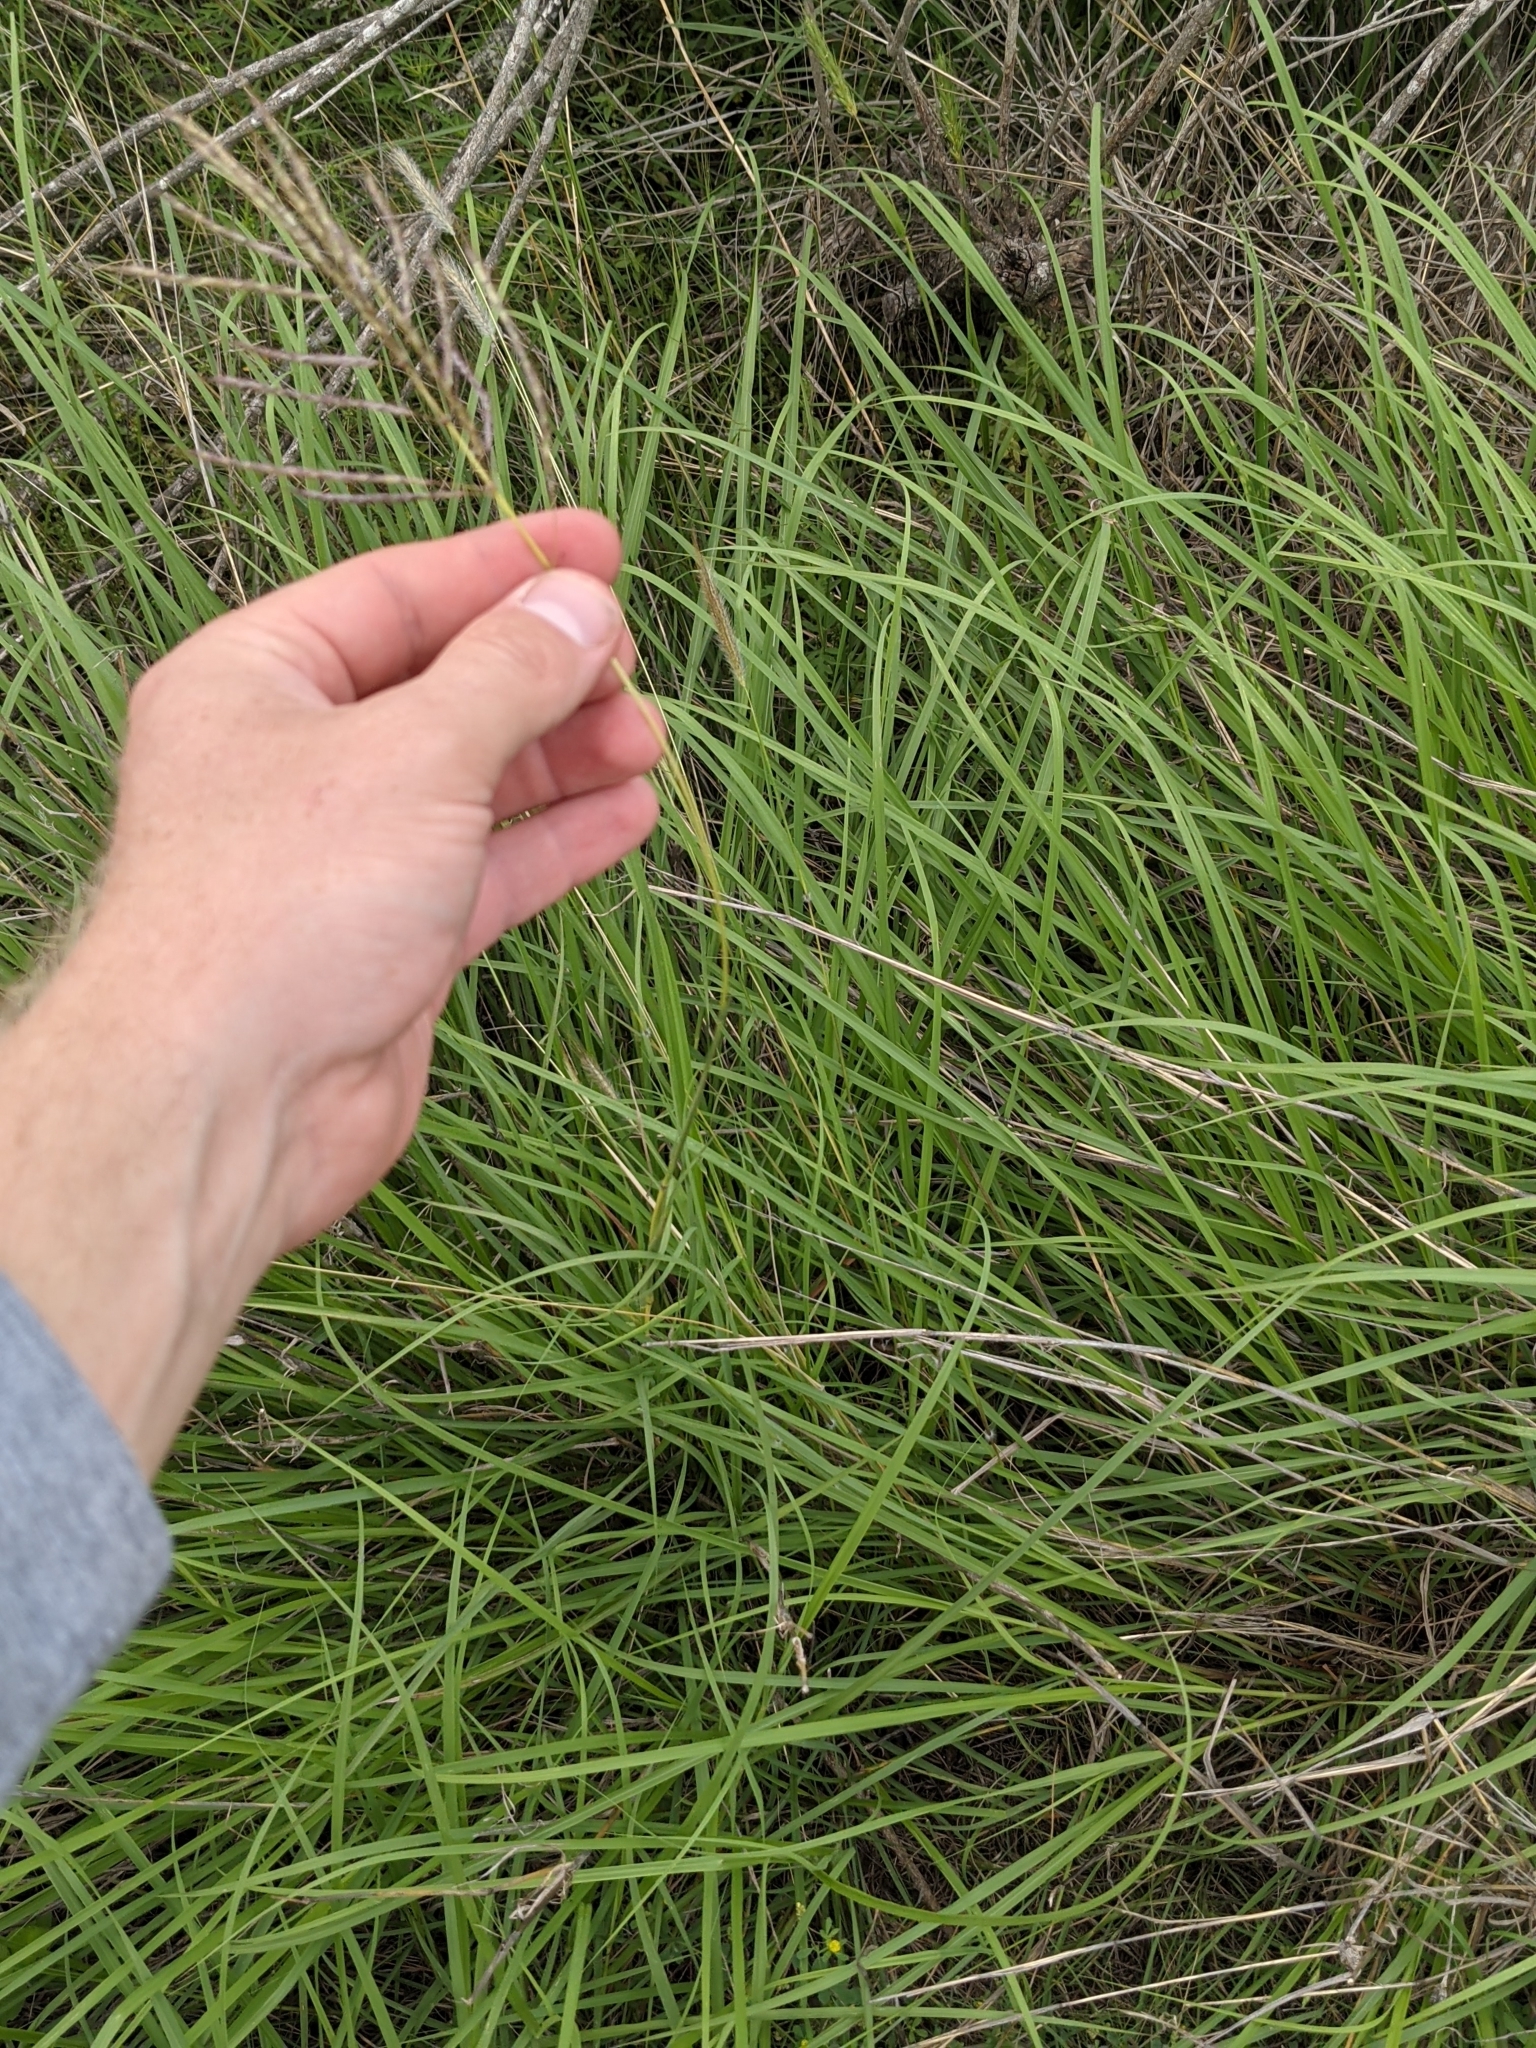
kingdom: Plantae
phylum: Tracheophyta
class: Liliopsida
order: Poales
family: Poaceae
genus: Bothriochloa
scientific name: Bothriochloa bladhii
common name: Caucasian bluestem
